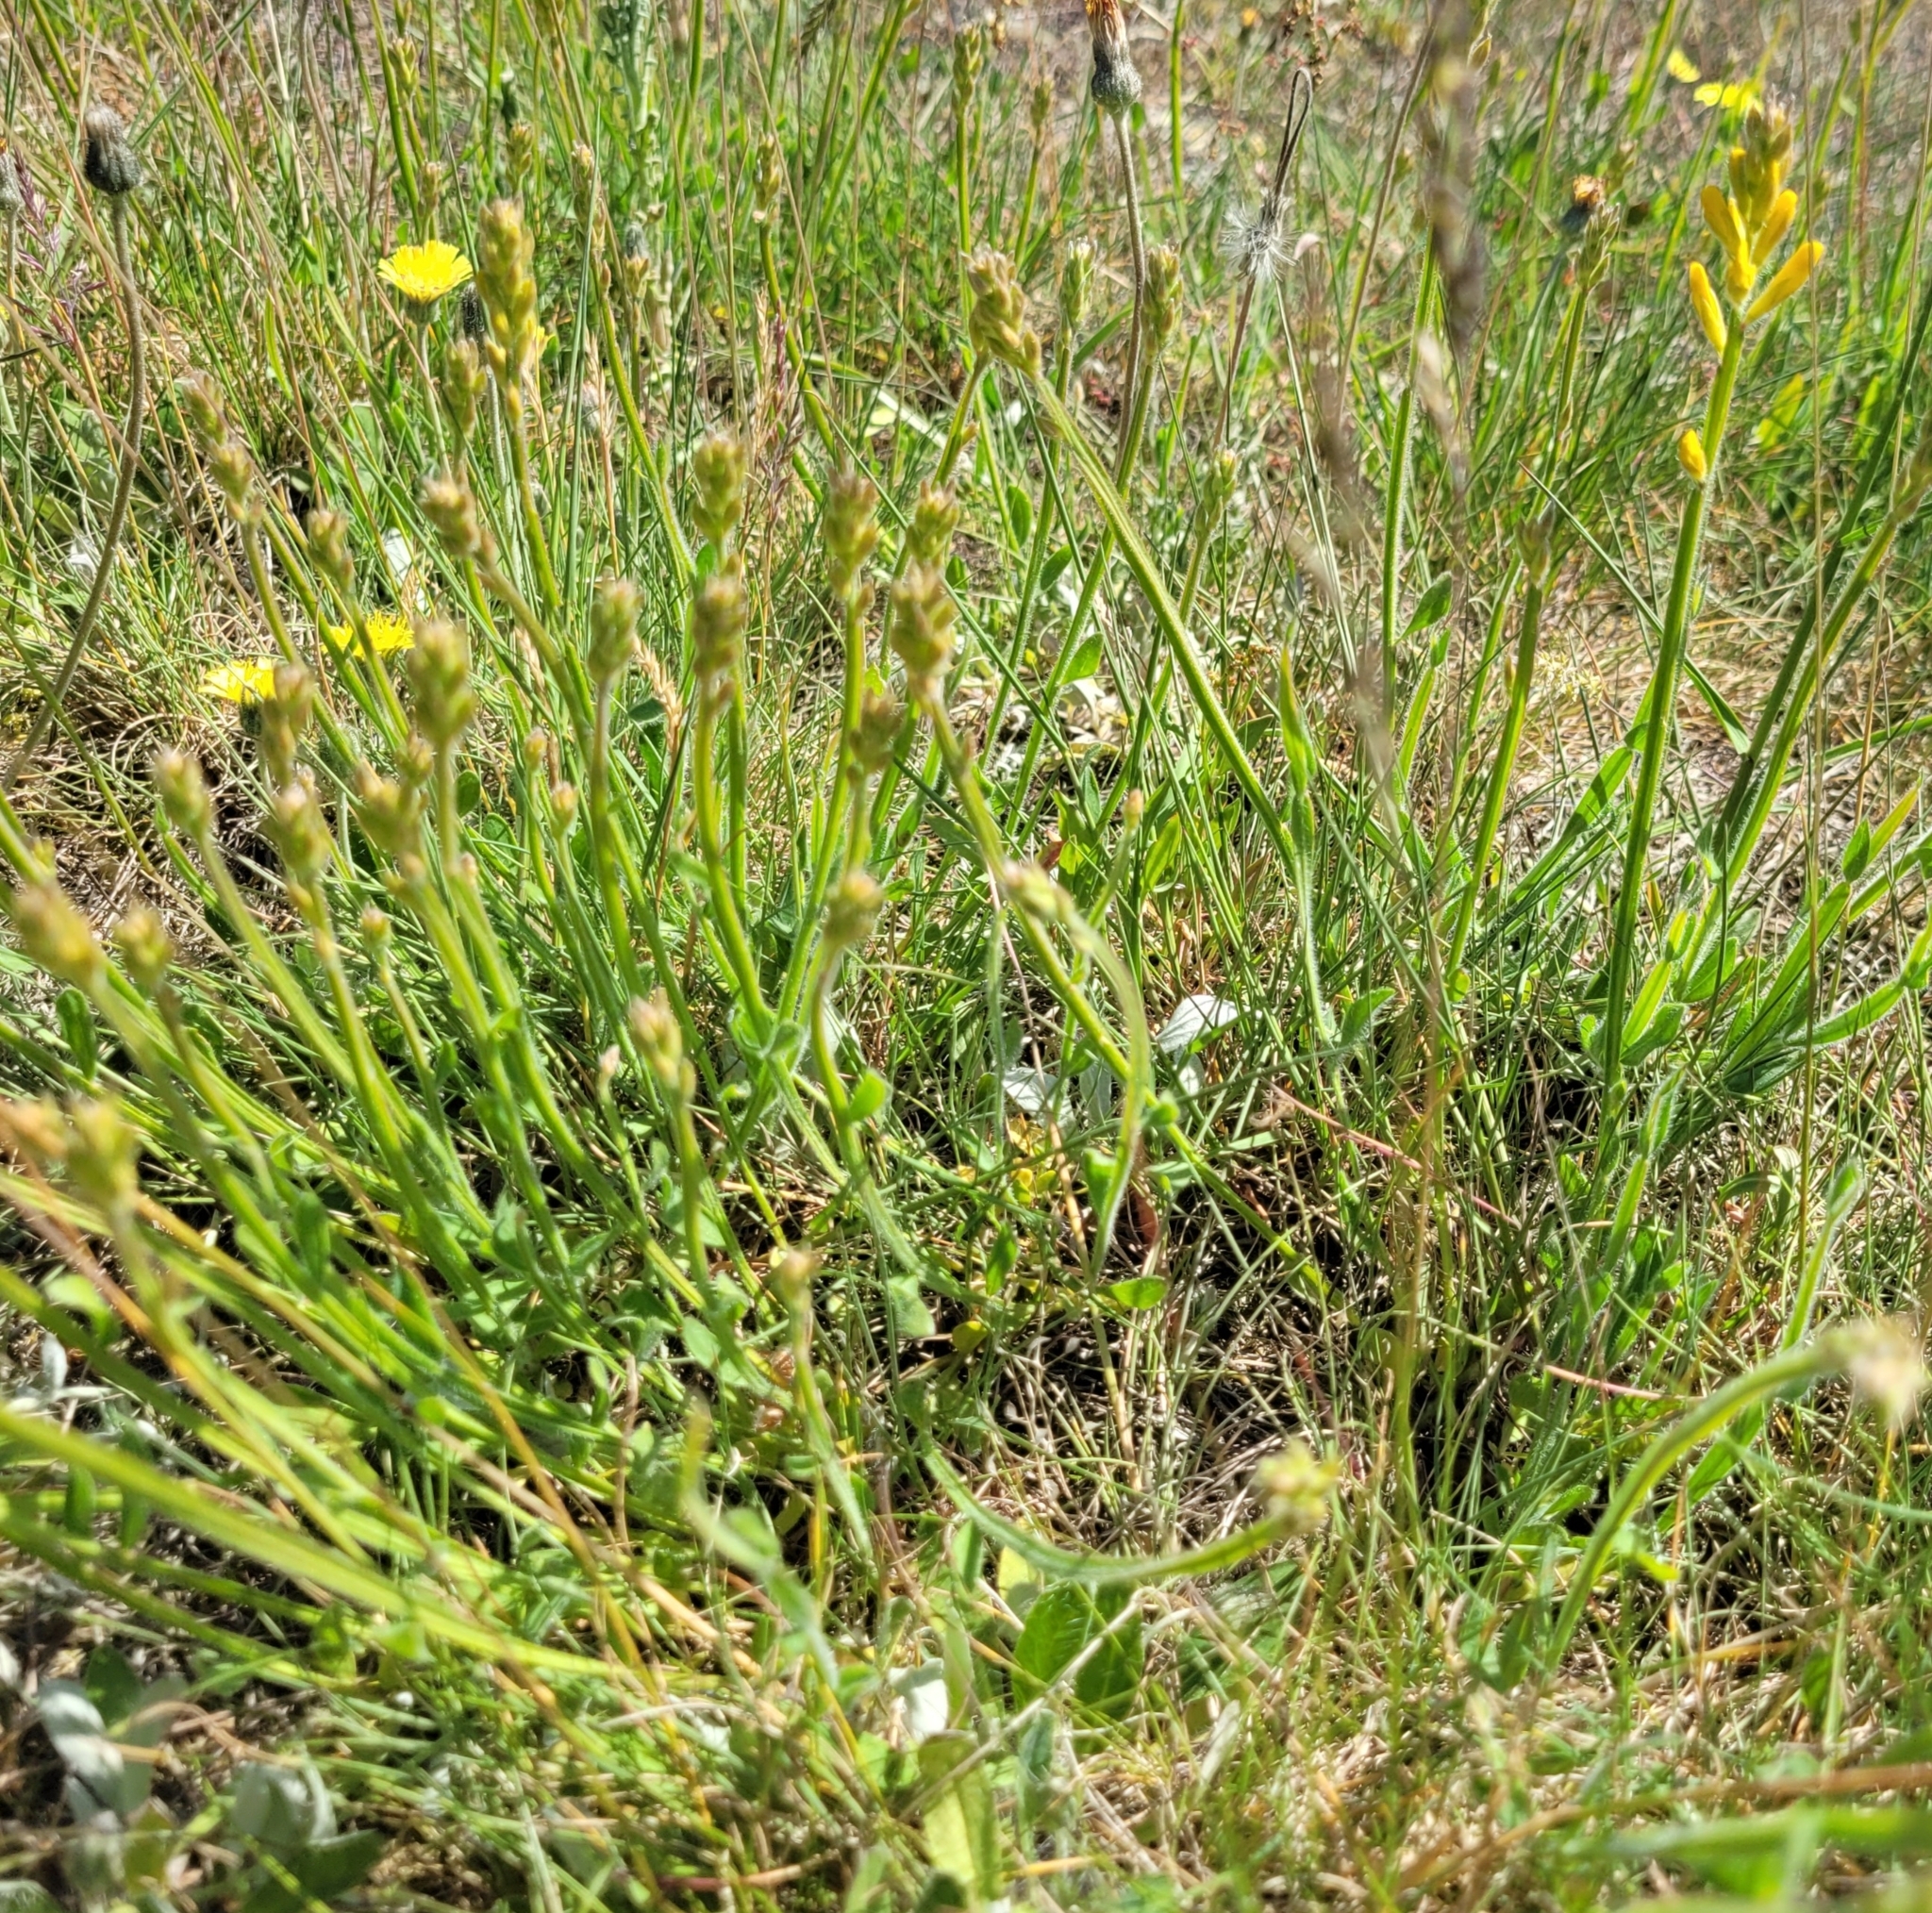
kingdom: Plantae
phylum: Tracheophyta
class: Magnoliopsida
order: Fabales
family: Fabaceae
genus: Genista
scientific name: Genista sagittalis
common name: Winged greenweed
